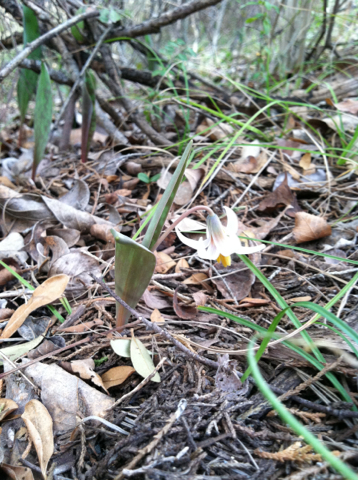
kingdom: Plantae
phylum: Tracheophyta
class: Liliopsida
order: Liliales
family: Liliaceae
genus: Erythronium
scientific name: Erythronium albidum
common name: White trout-lily
